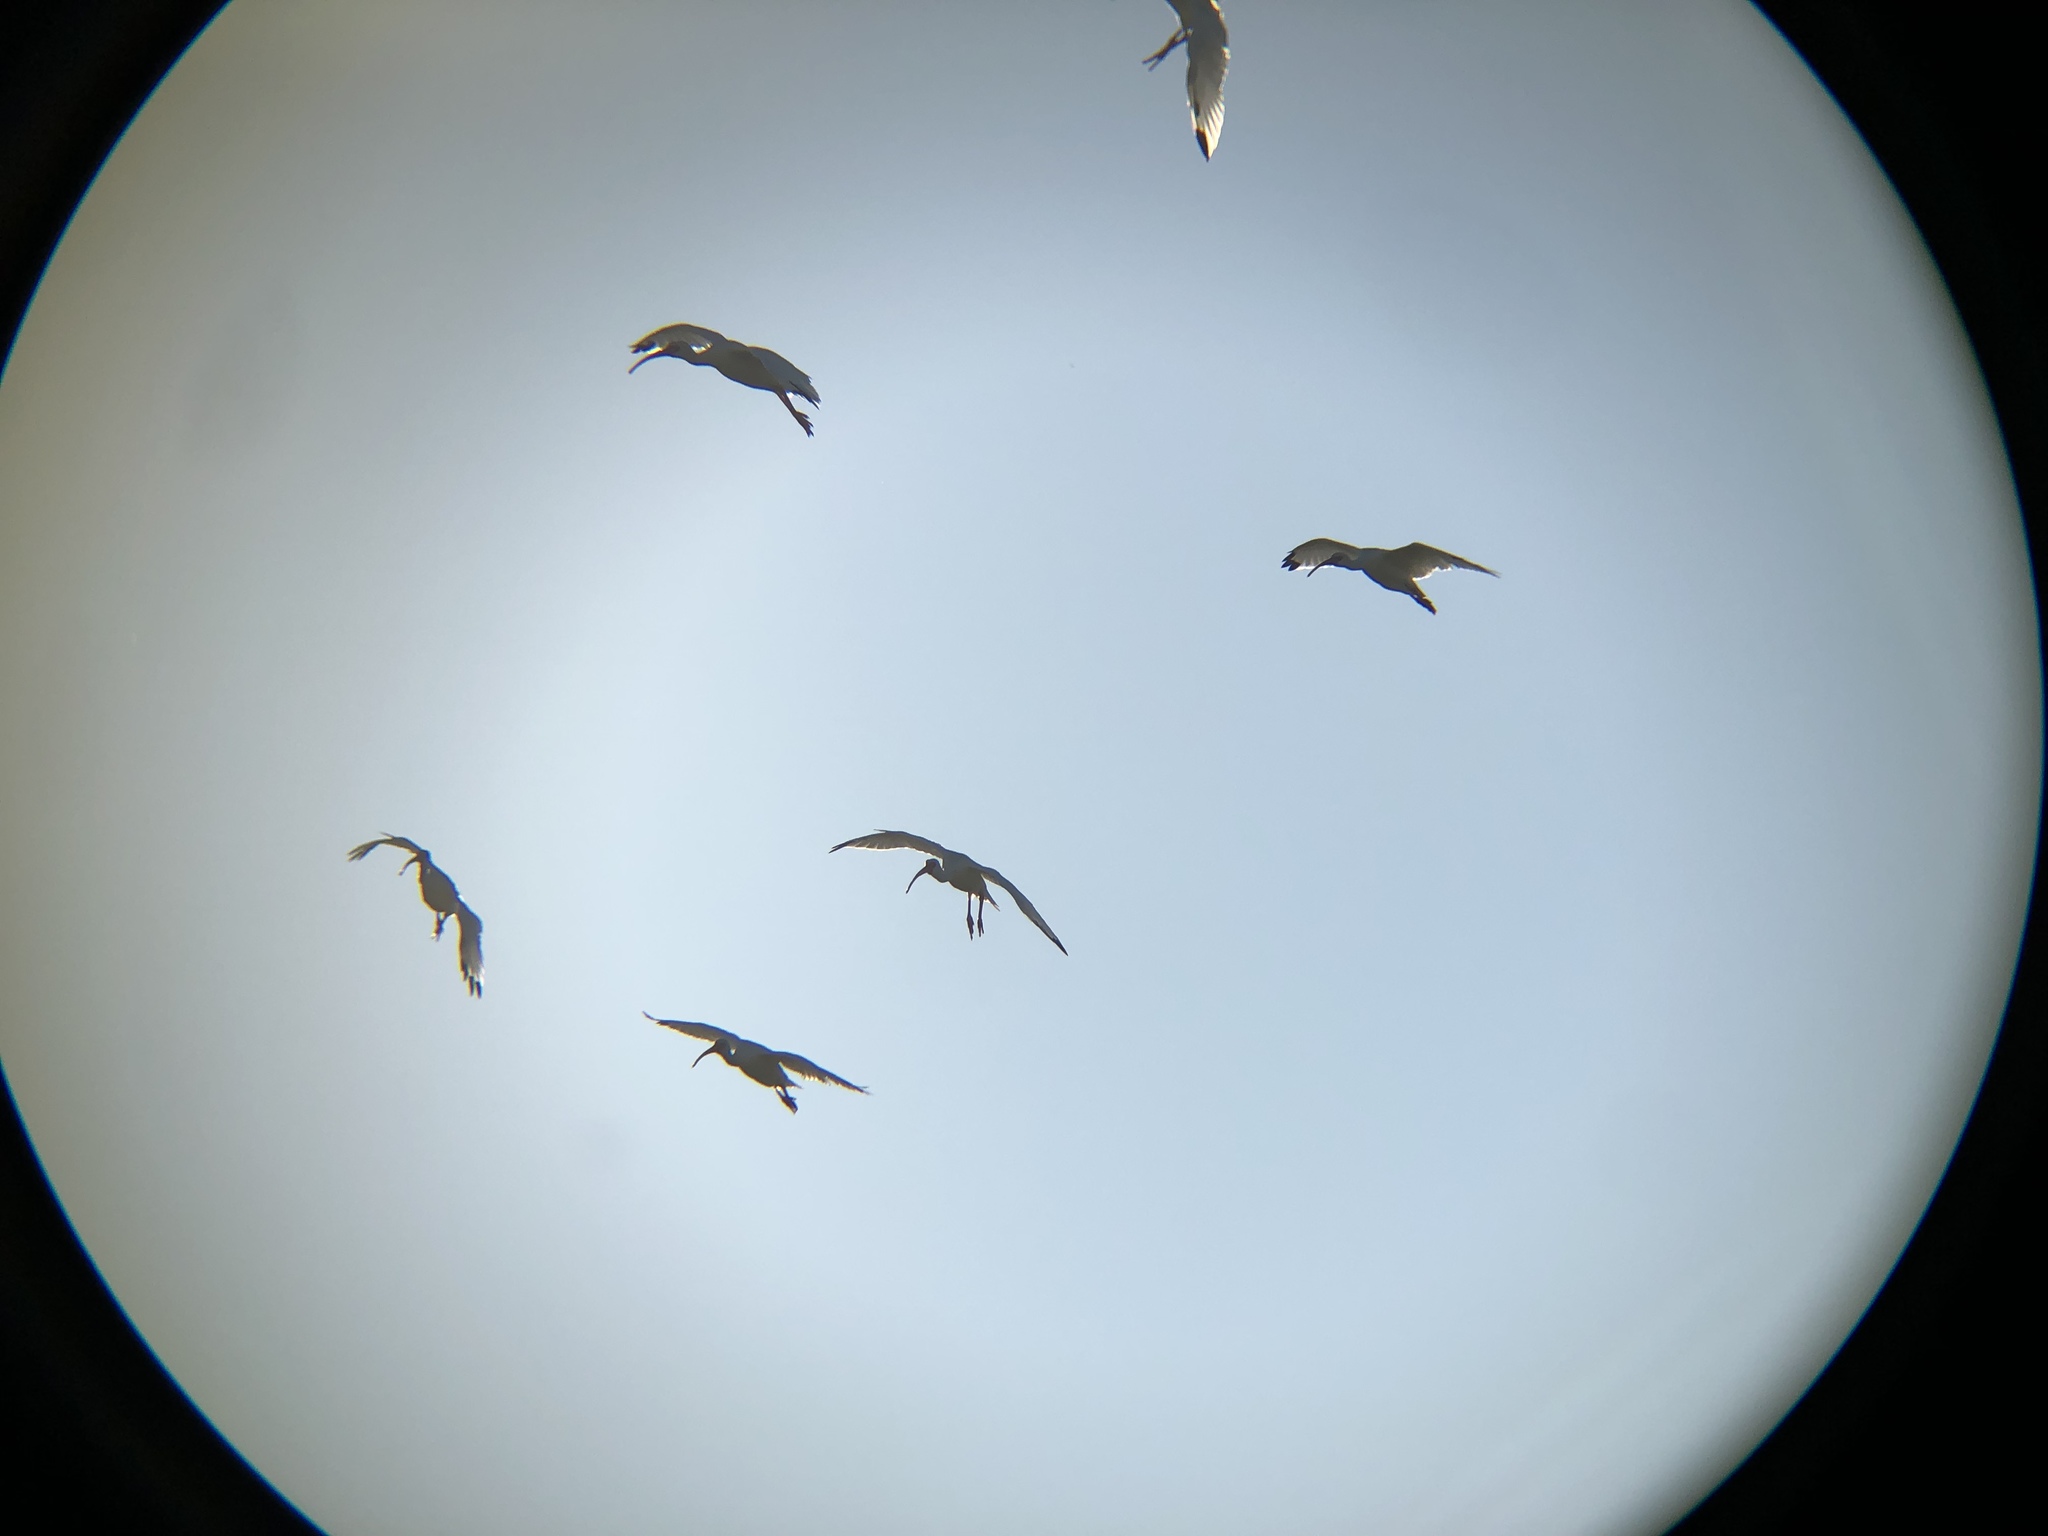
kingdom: Animalia
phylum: Chordata
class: Aves
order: Pelecaniformes
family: Threskiornithidae
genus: Eudocimus
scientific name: Eudocimus albus
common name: White ibis
